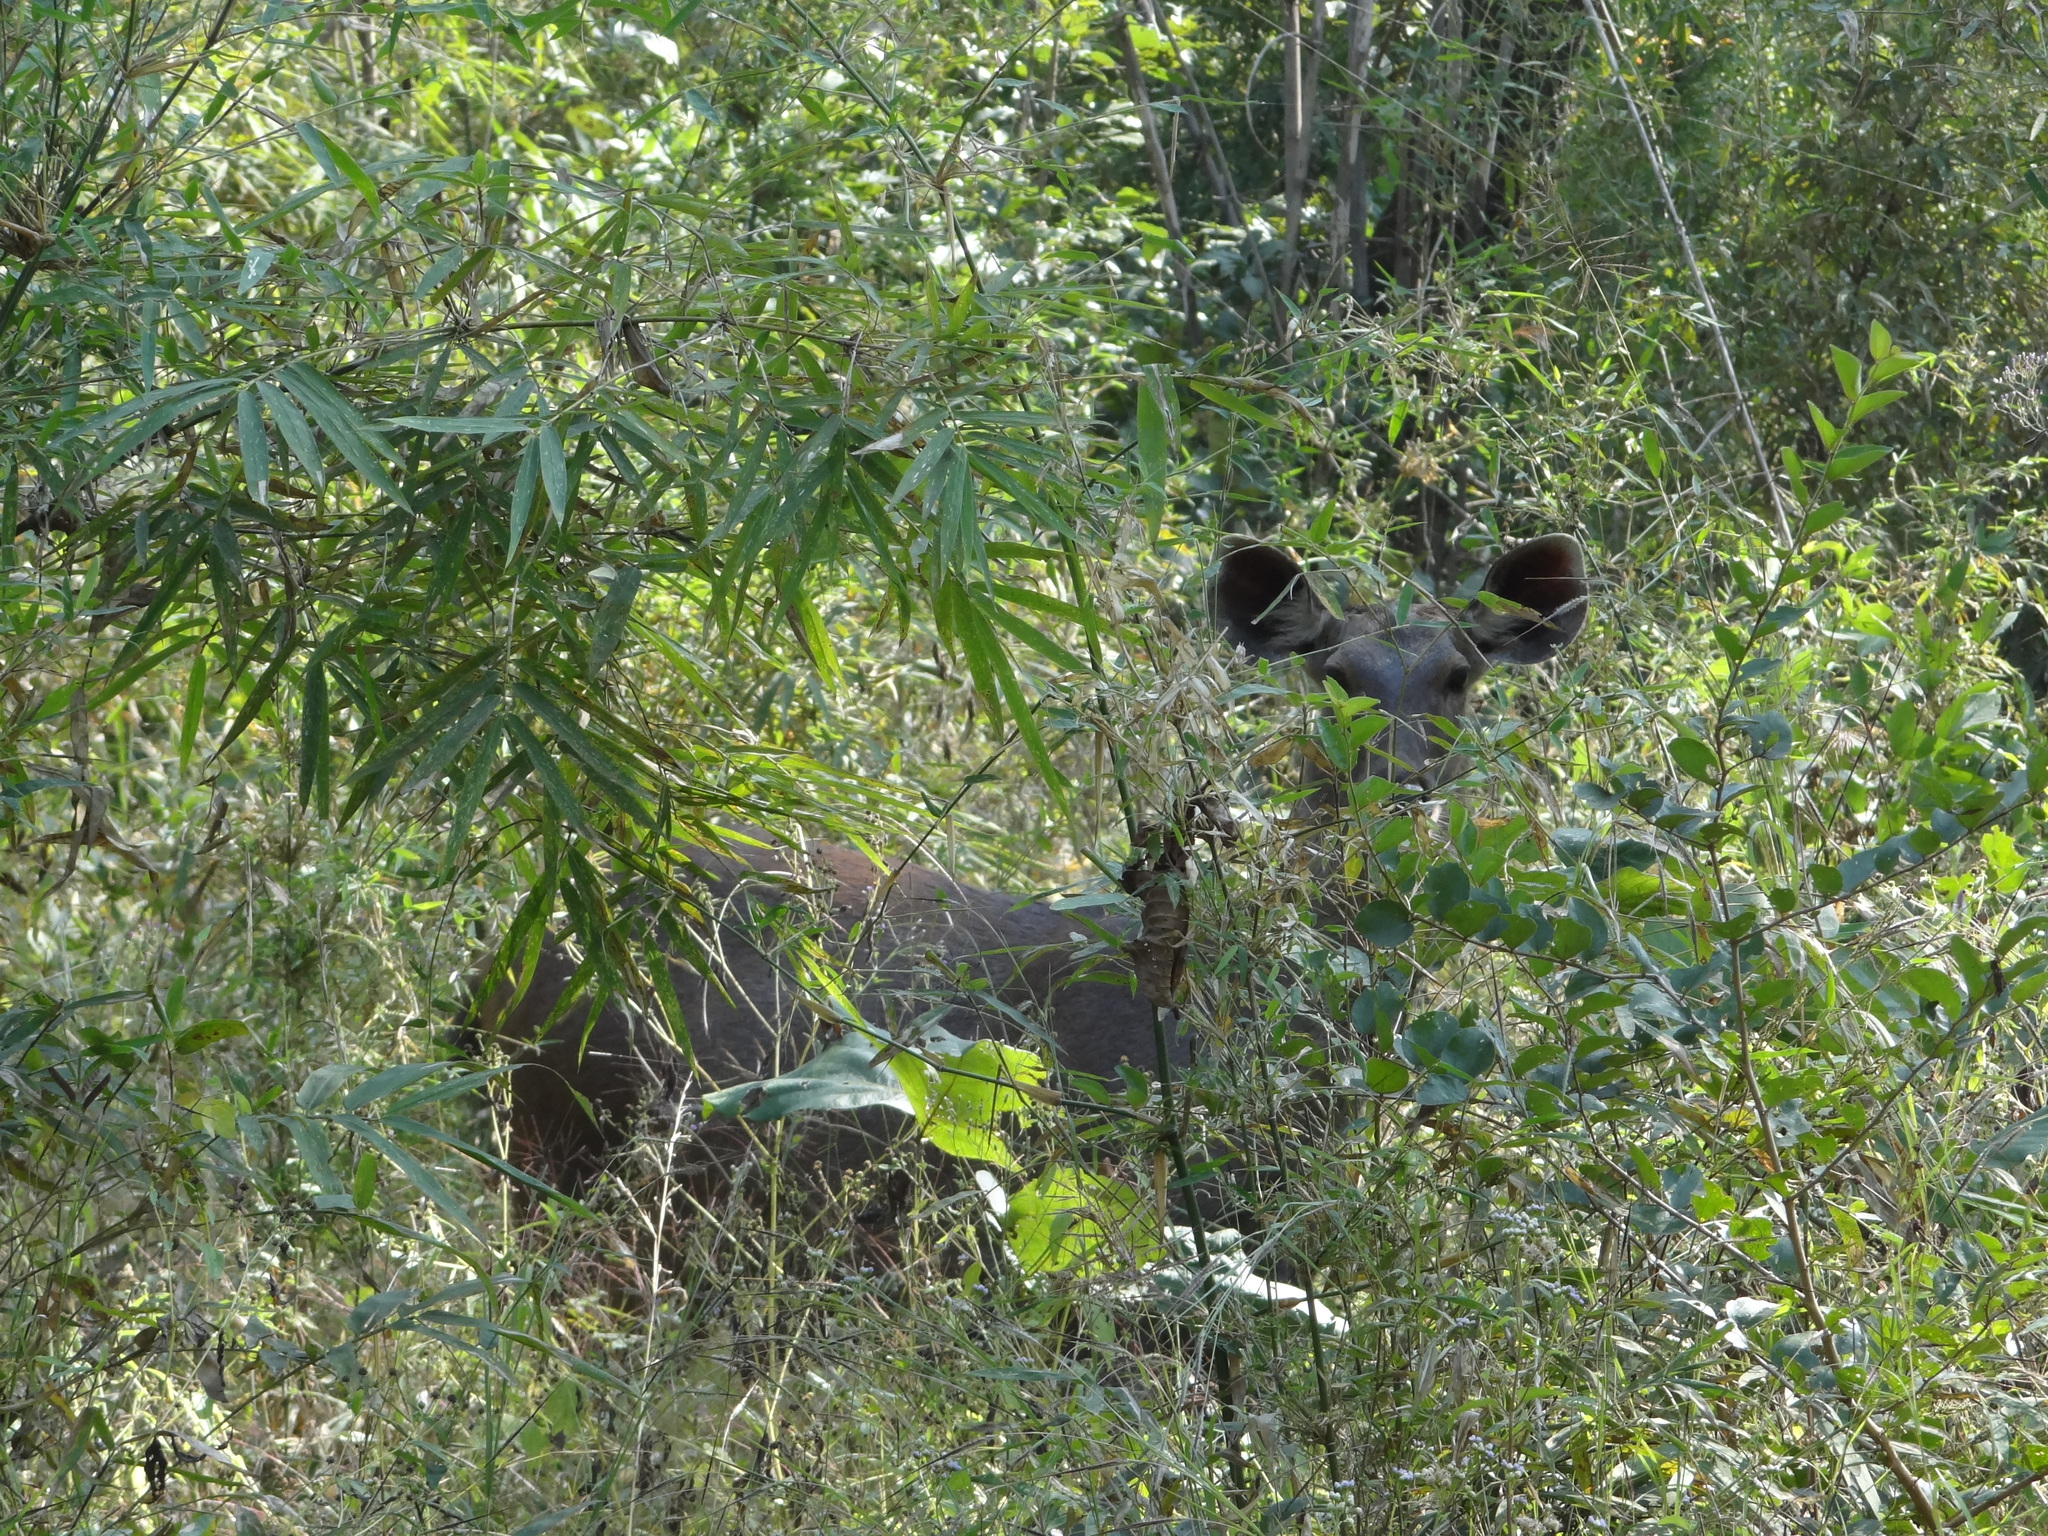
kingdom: Animalia
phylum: Chordata
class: Mammalia
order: Artiodactyla
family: Cervidae
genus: Rusa
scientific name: Rusa unicolor
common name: Sambar
